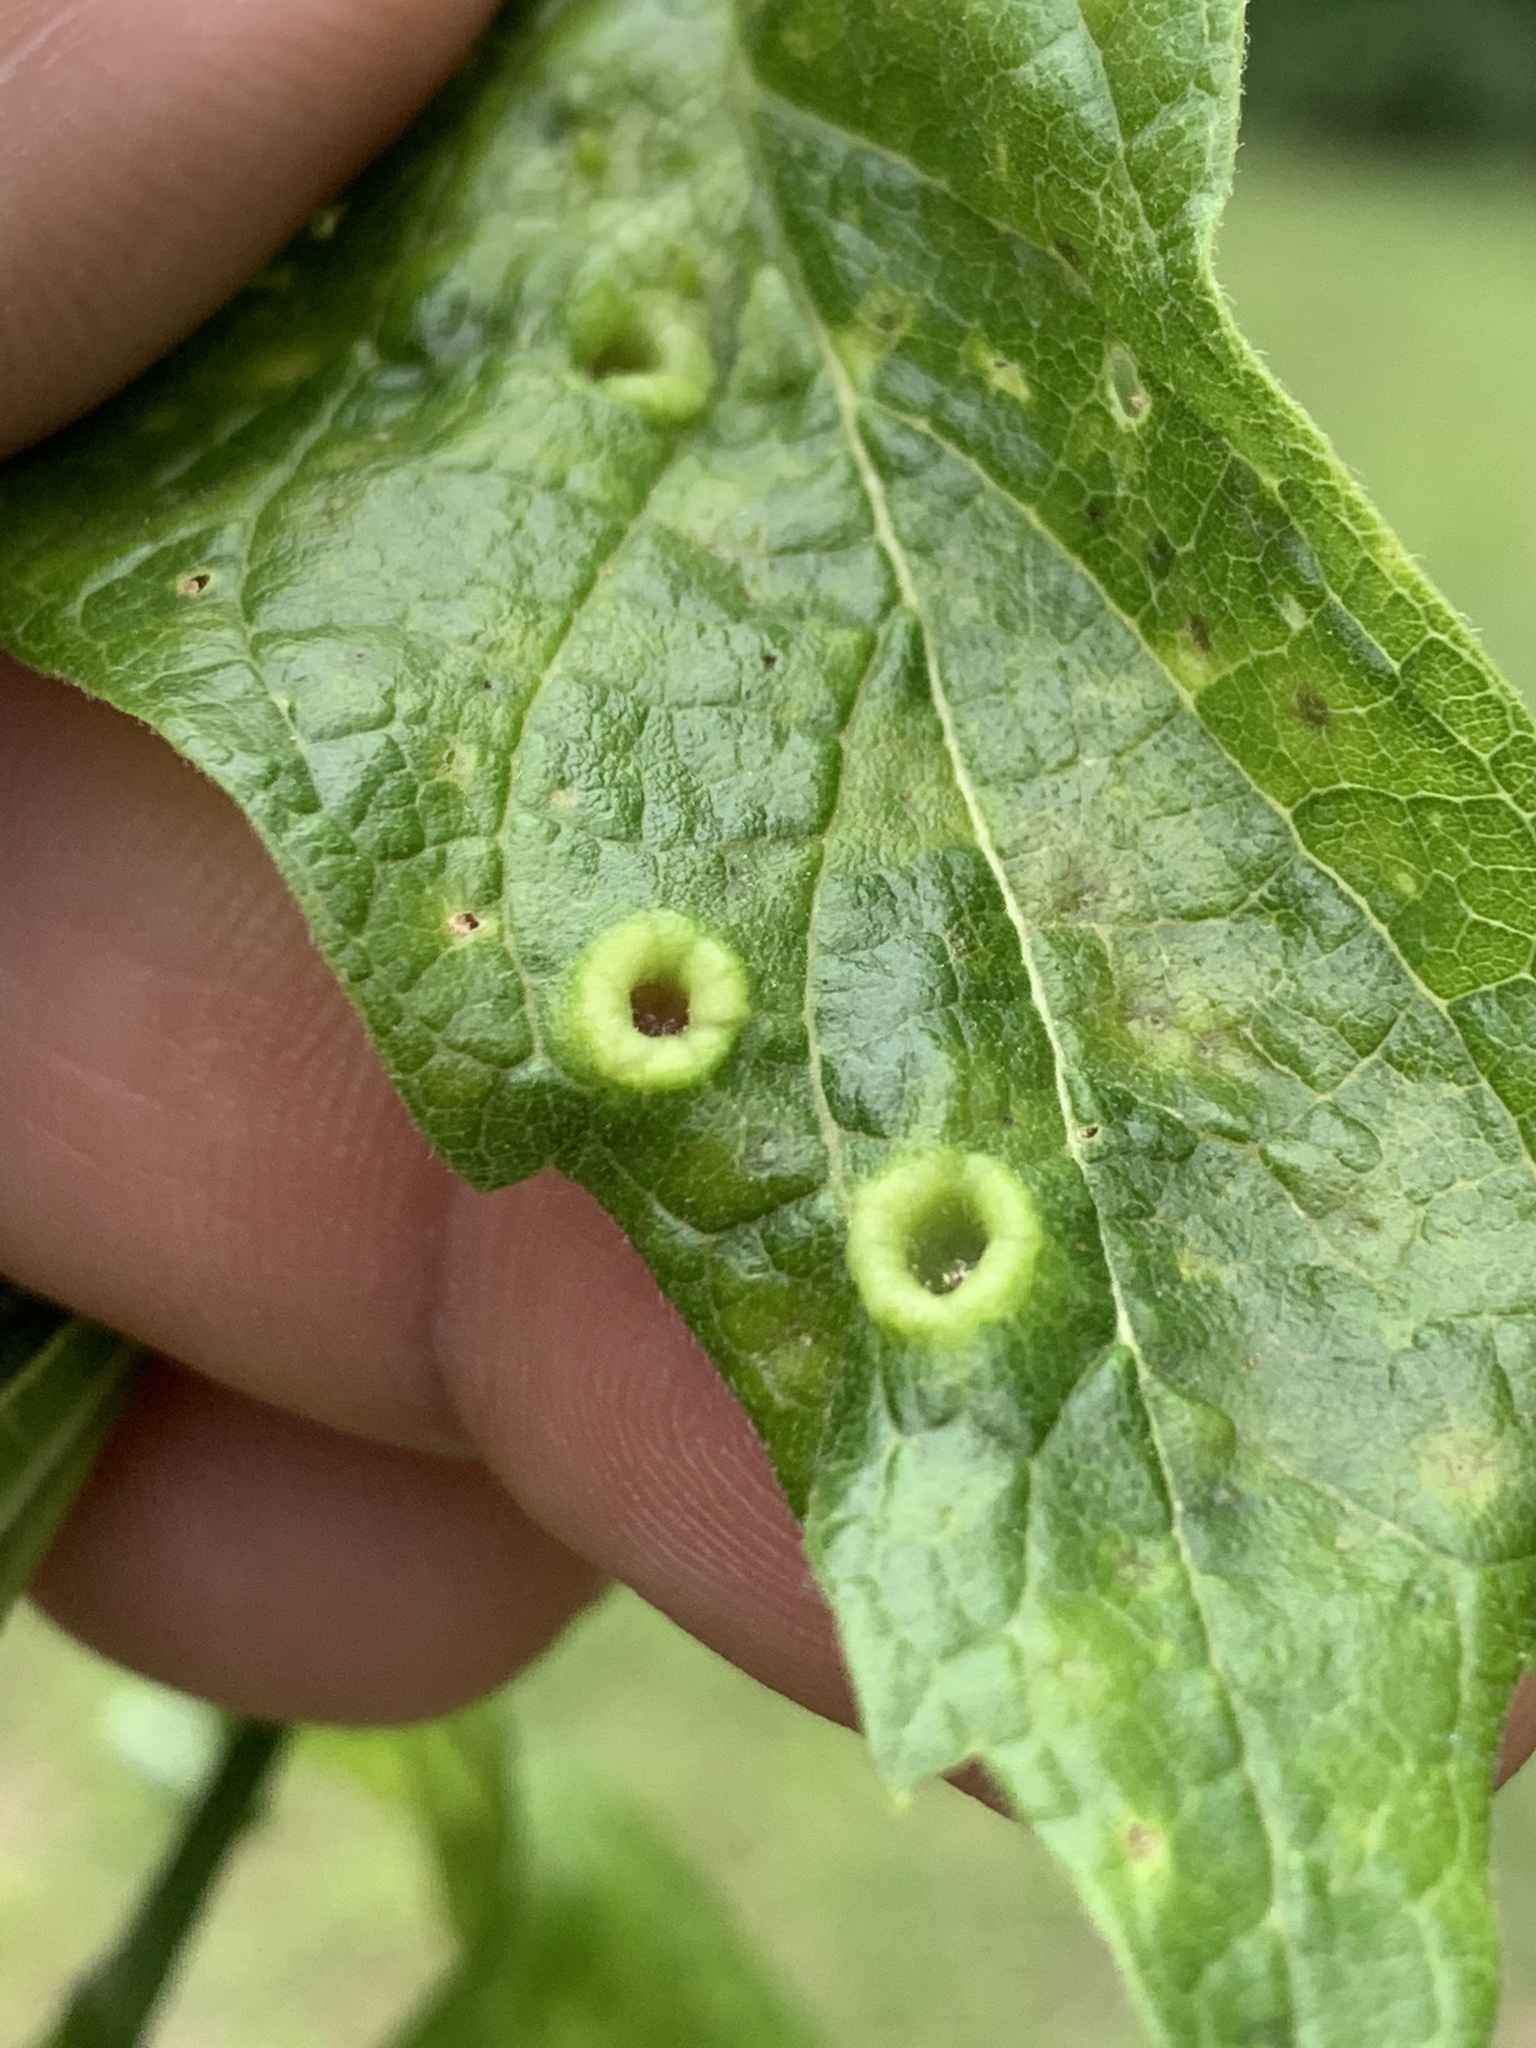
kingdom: Animalia
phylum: Arthropoda
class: Insecta
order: Hemiptera
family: Aphalaridae
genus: Pachypsylla
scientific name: Pachypsylla celtidismamma
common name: Hackberry nipplegall psyllid
